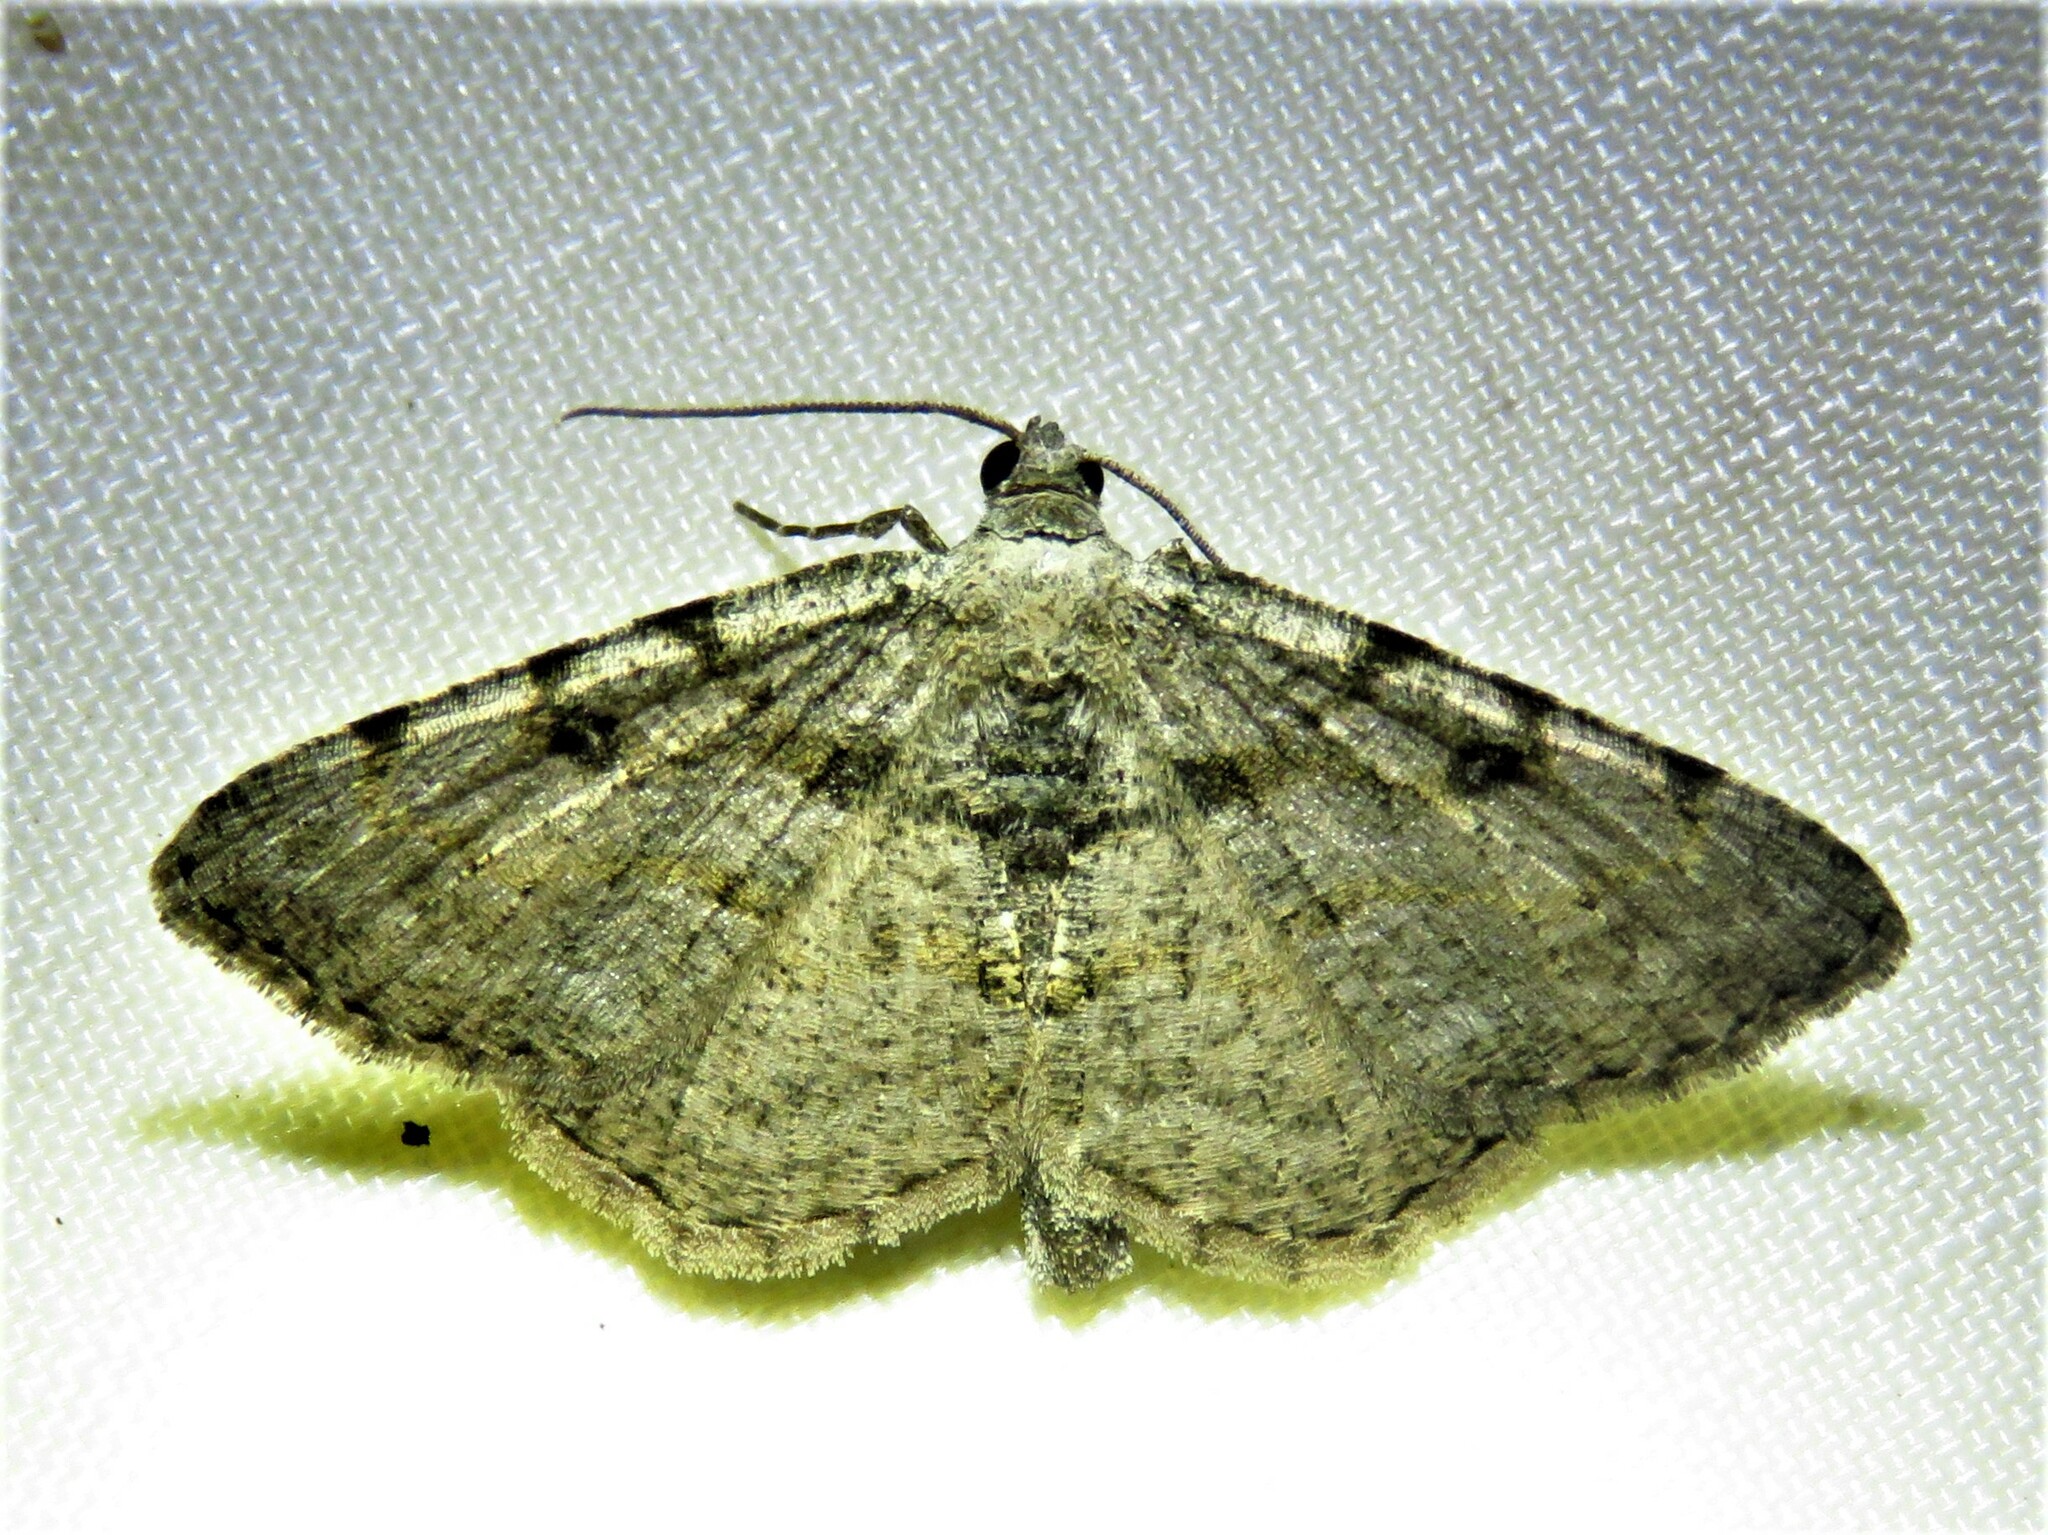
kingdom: Animalia
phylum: Arthropoda
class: Insecta
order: Lepidoptera
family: Geometridae
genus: Digrammia
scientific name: Digrammia gnophosaria
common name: Hollow-spotted angle
